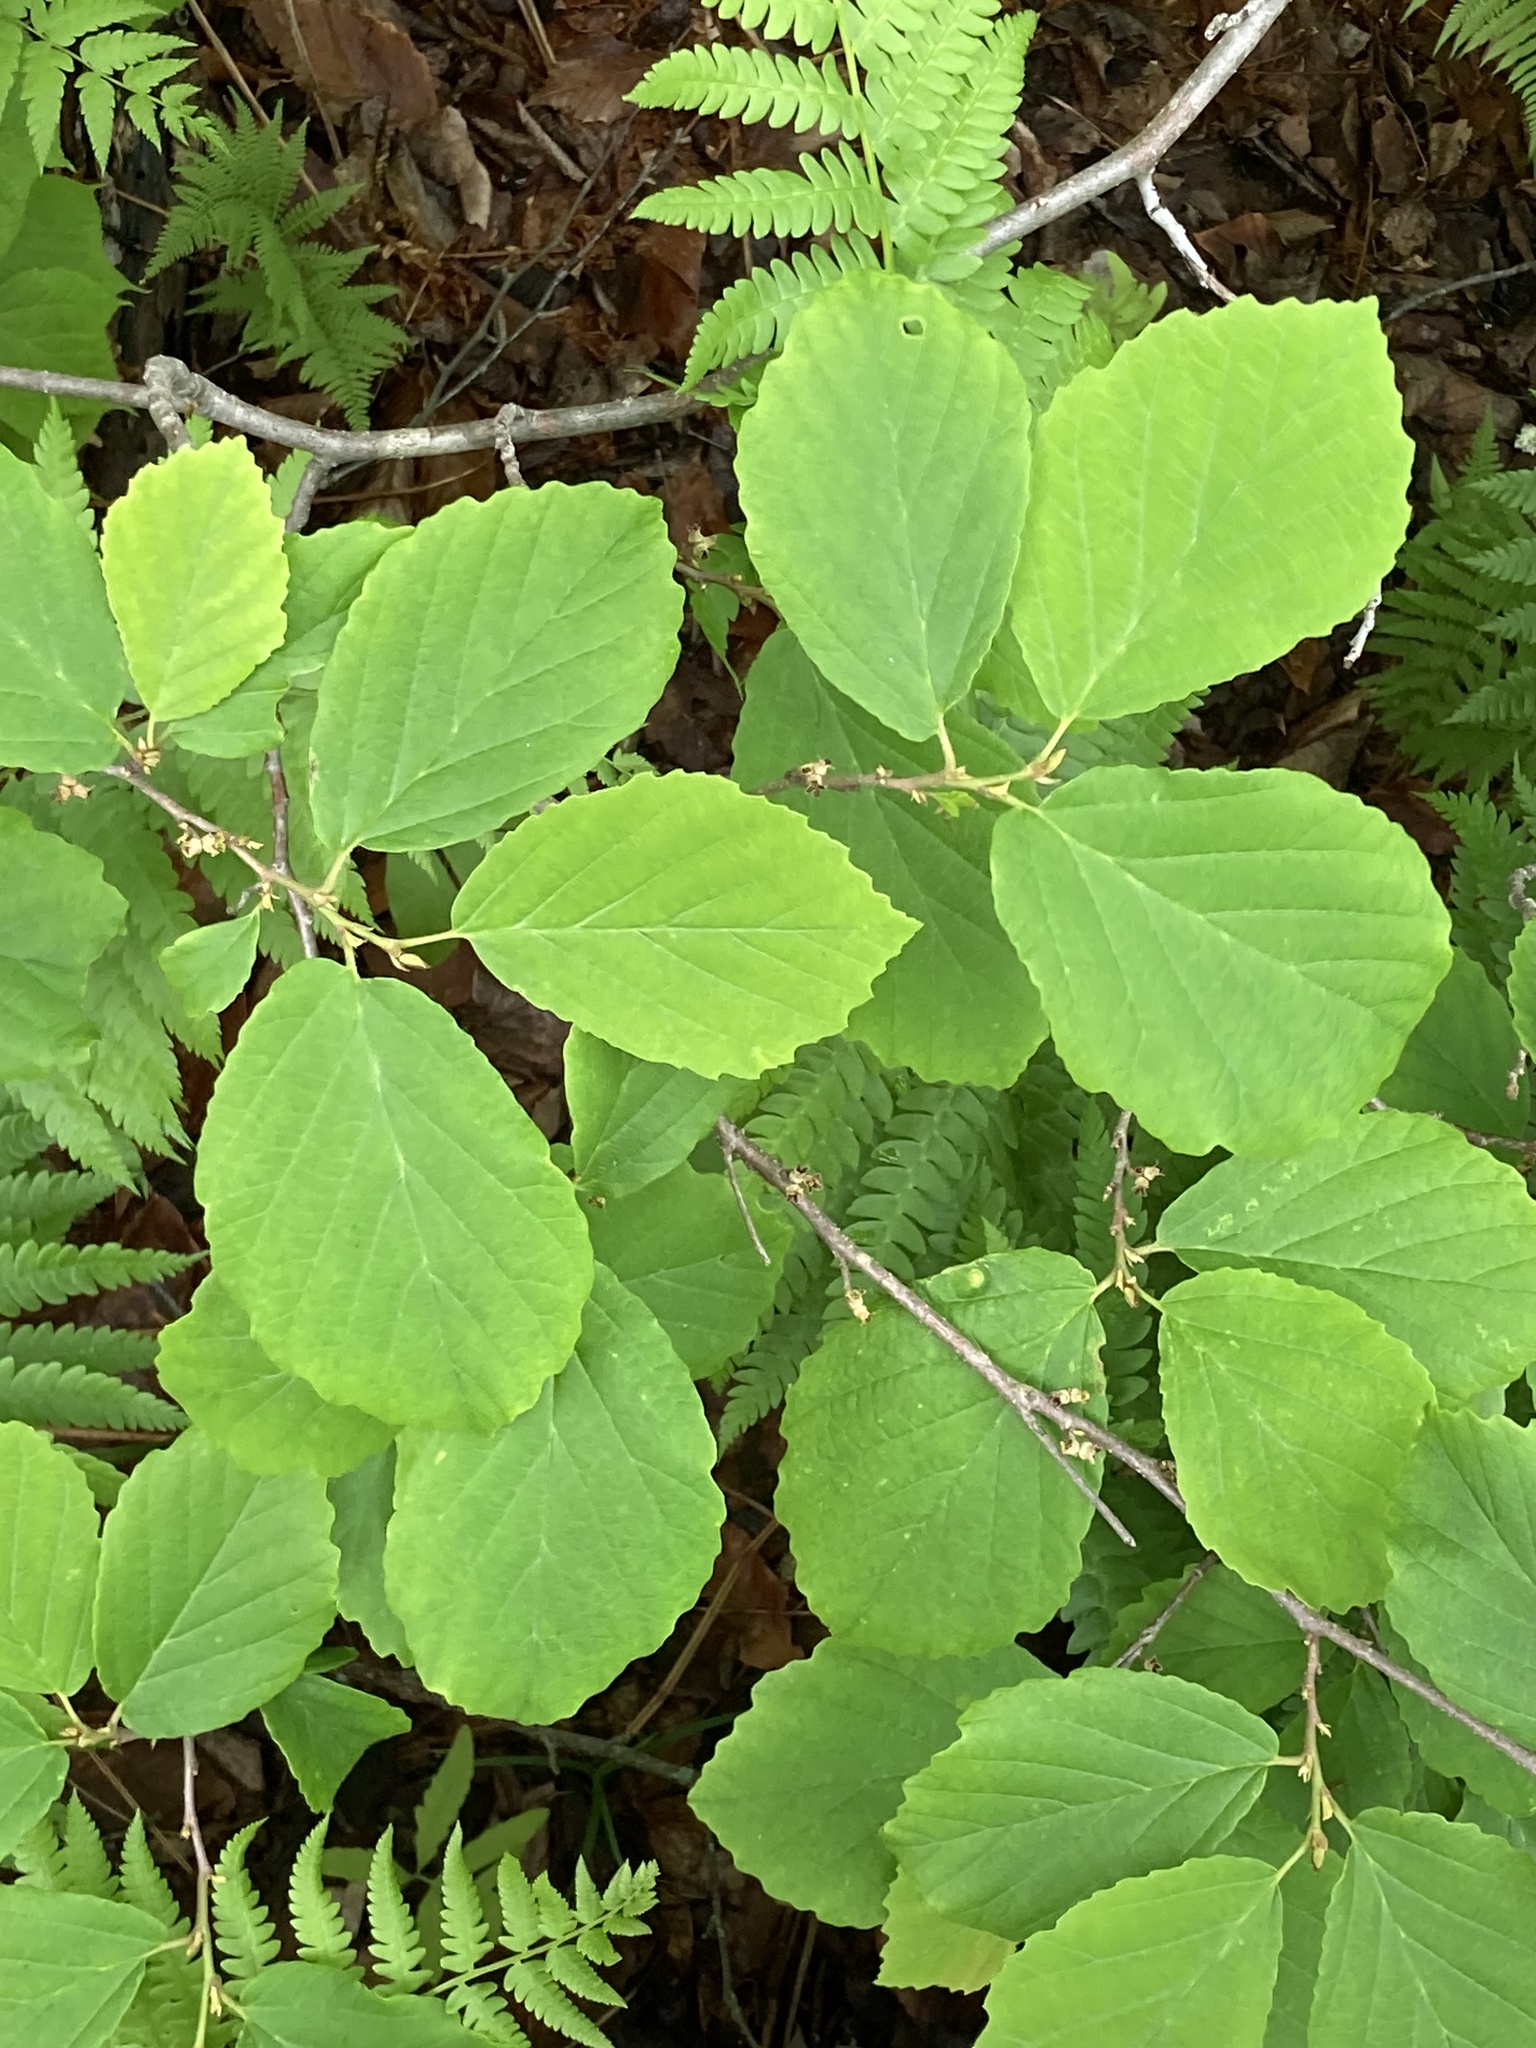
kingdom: Plantae
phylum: Tracheophyta
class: Magnoliopsida
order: Saxifragales
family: Hamamelidaceae
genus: Hamamelis
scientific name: Hamamelis virginiana
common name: Witch-hazel
